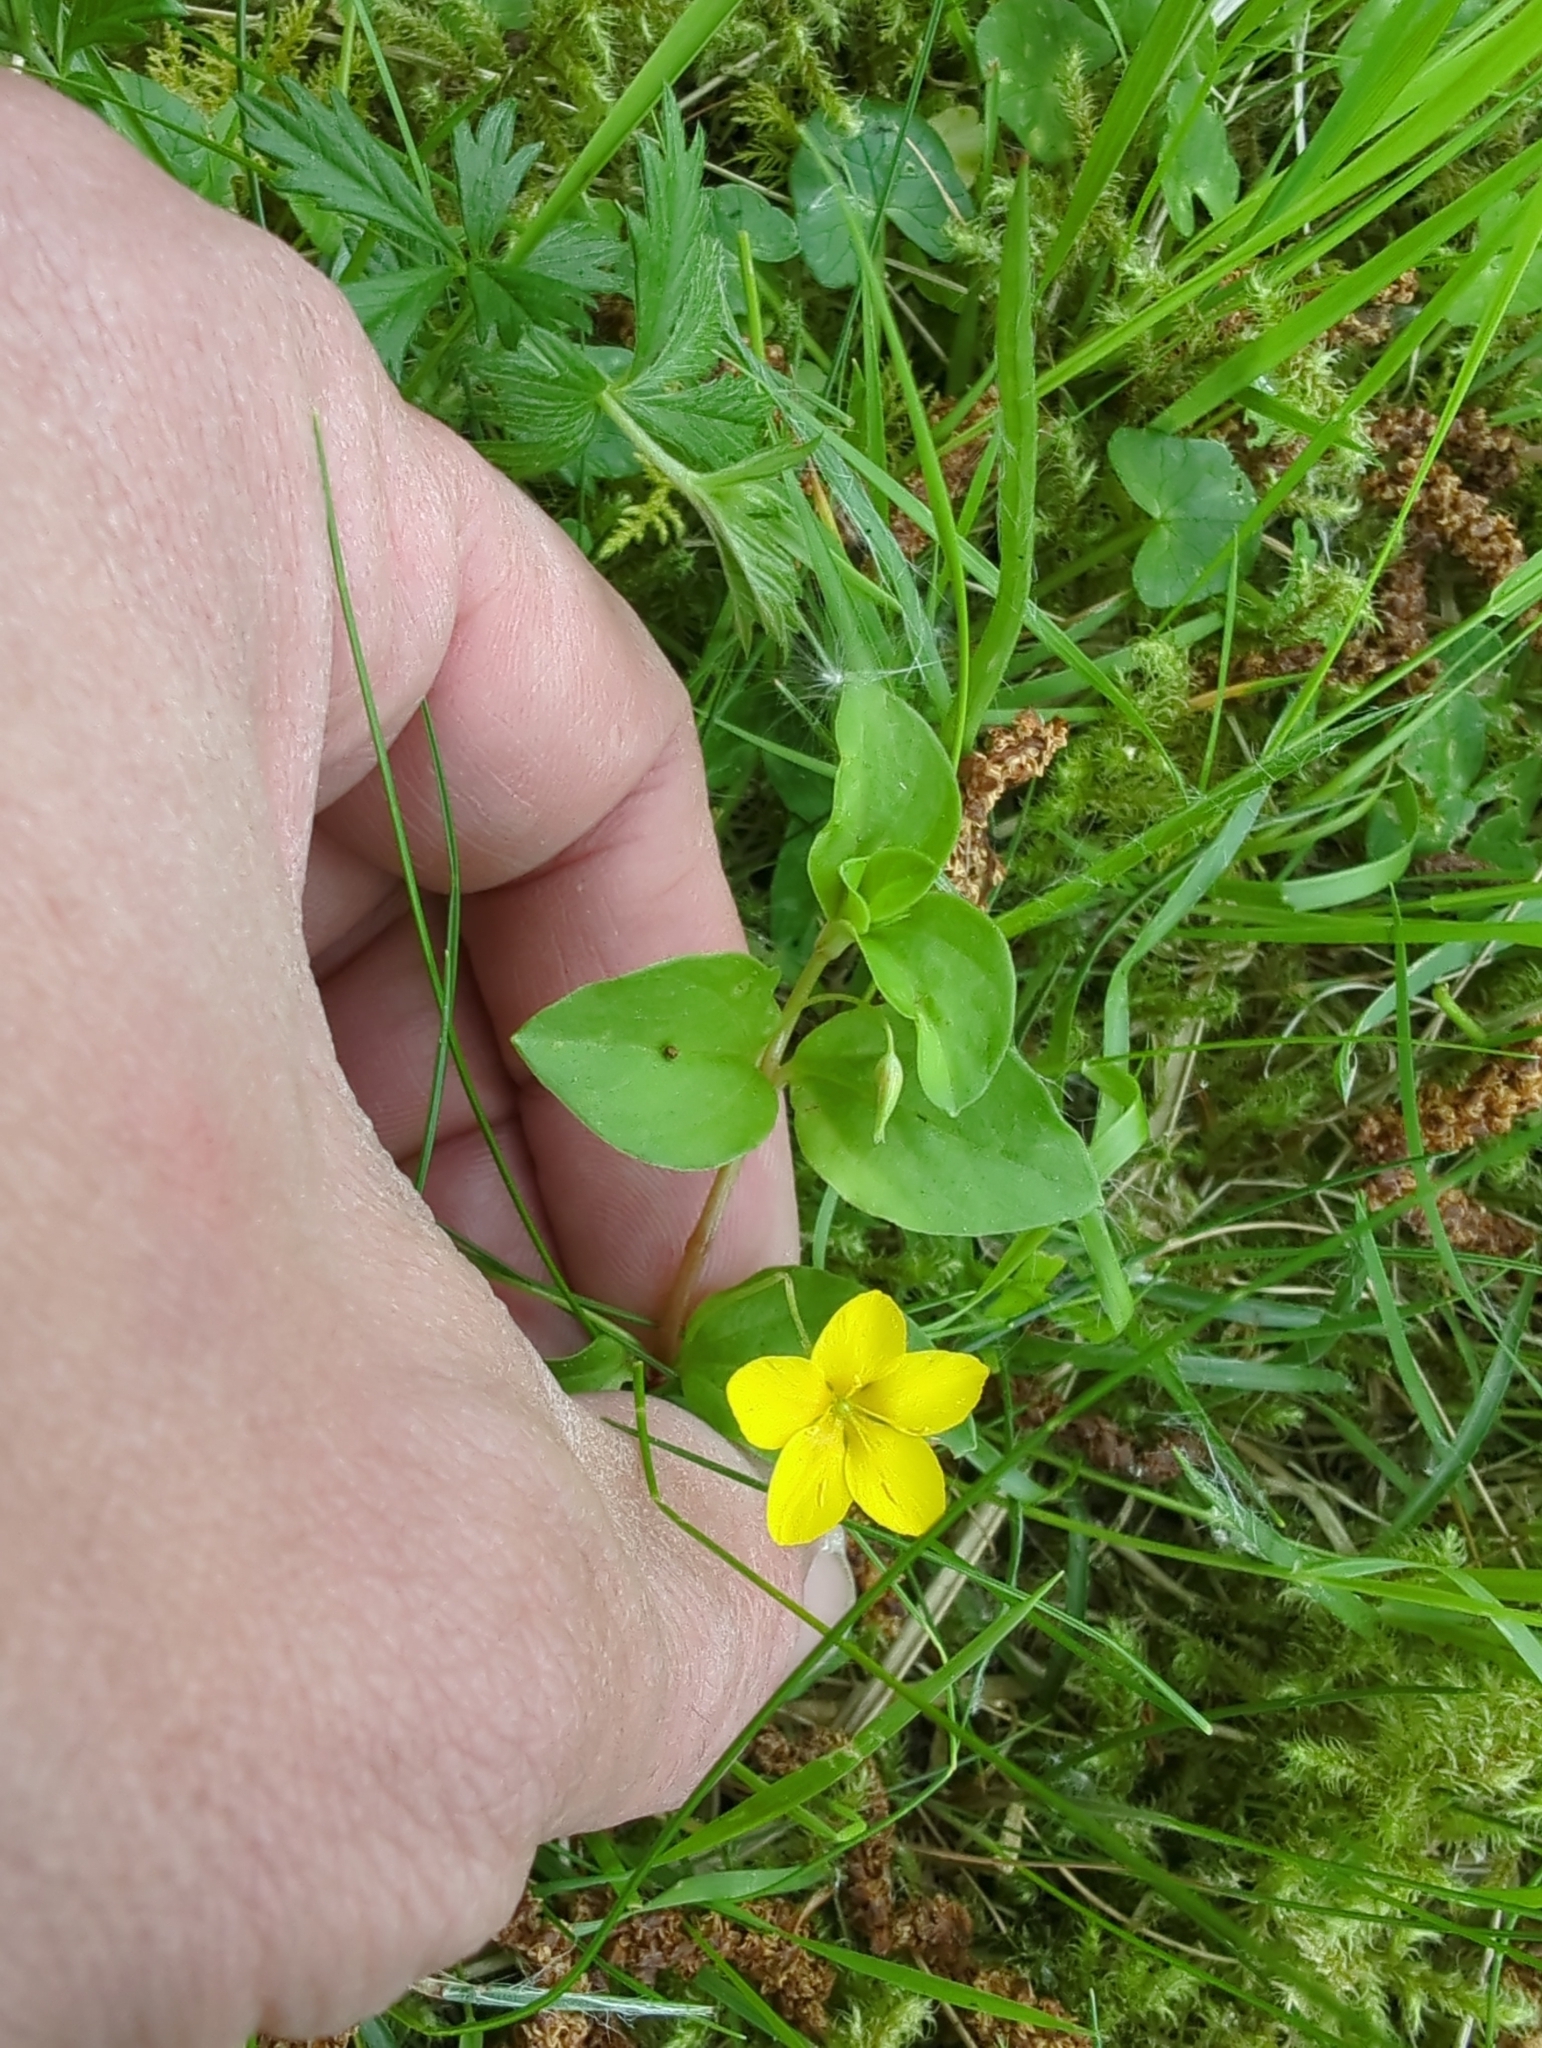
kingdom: Plantae
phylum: Tracheophyta
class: Magnoliopsida
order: Ericales
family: Primulaceae
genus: Lysimachia
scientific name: Lysimachia nemorum
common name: Yellow pimpernel
